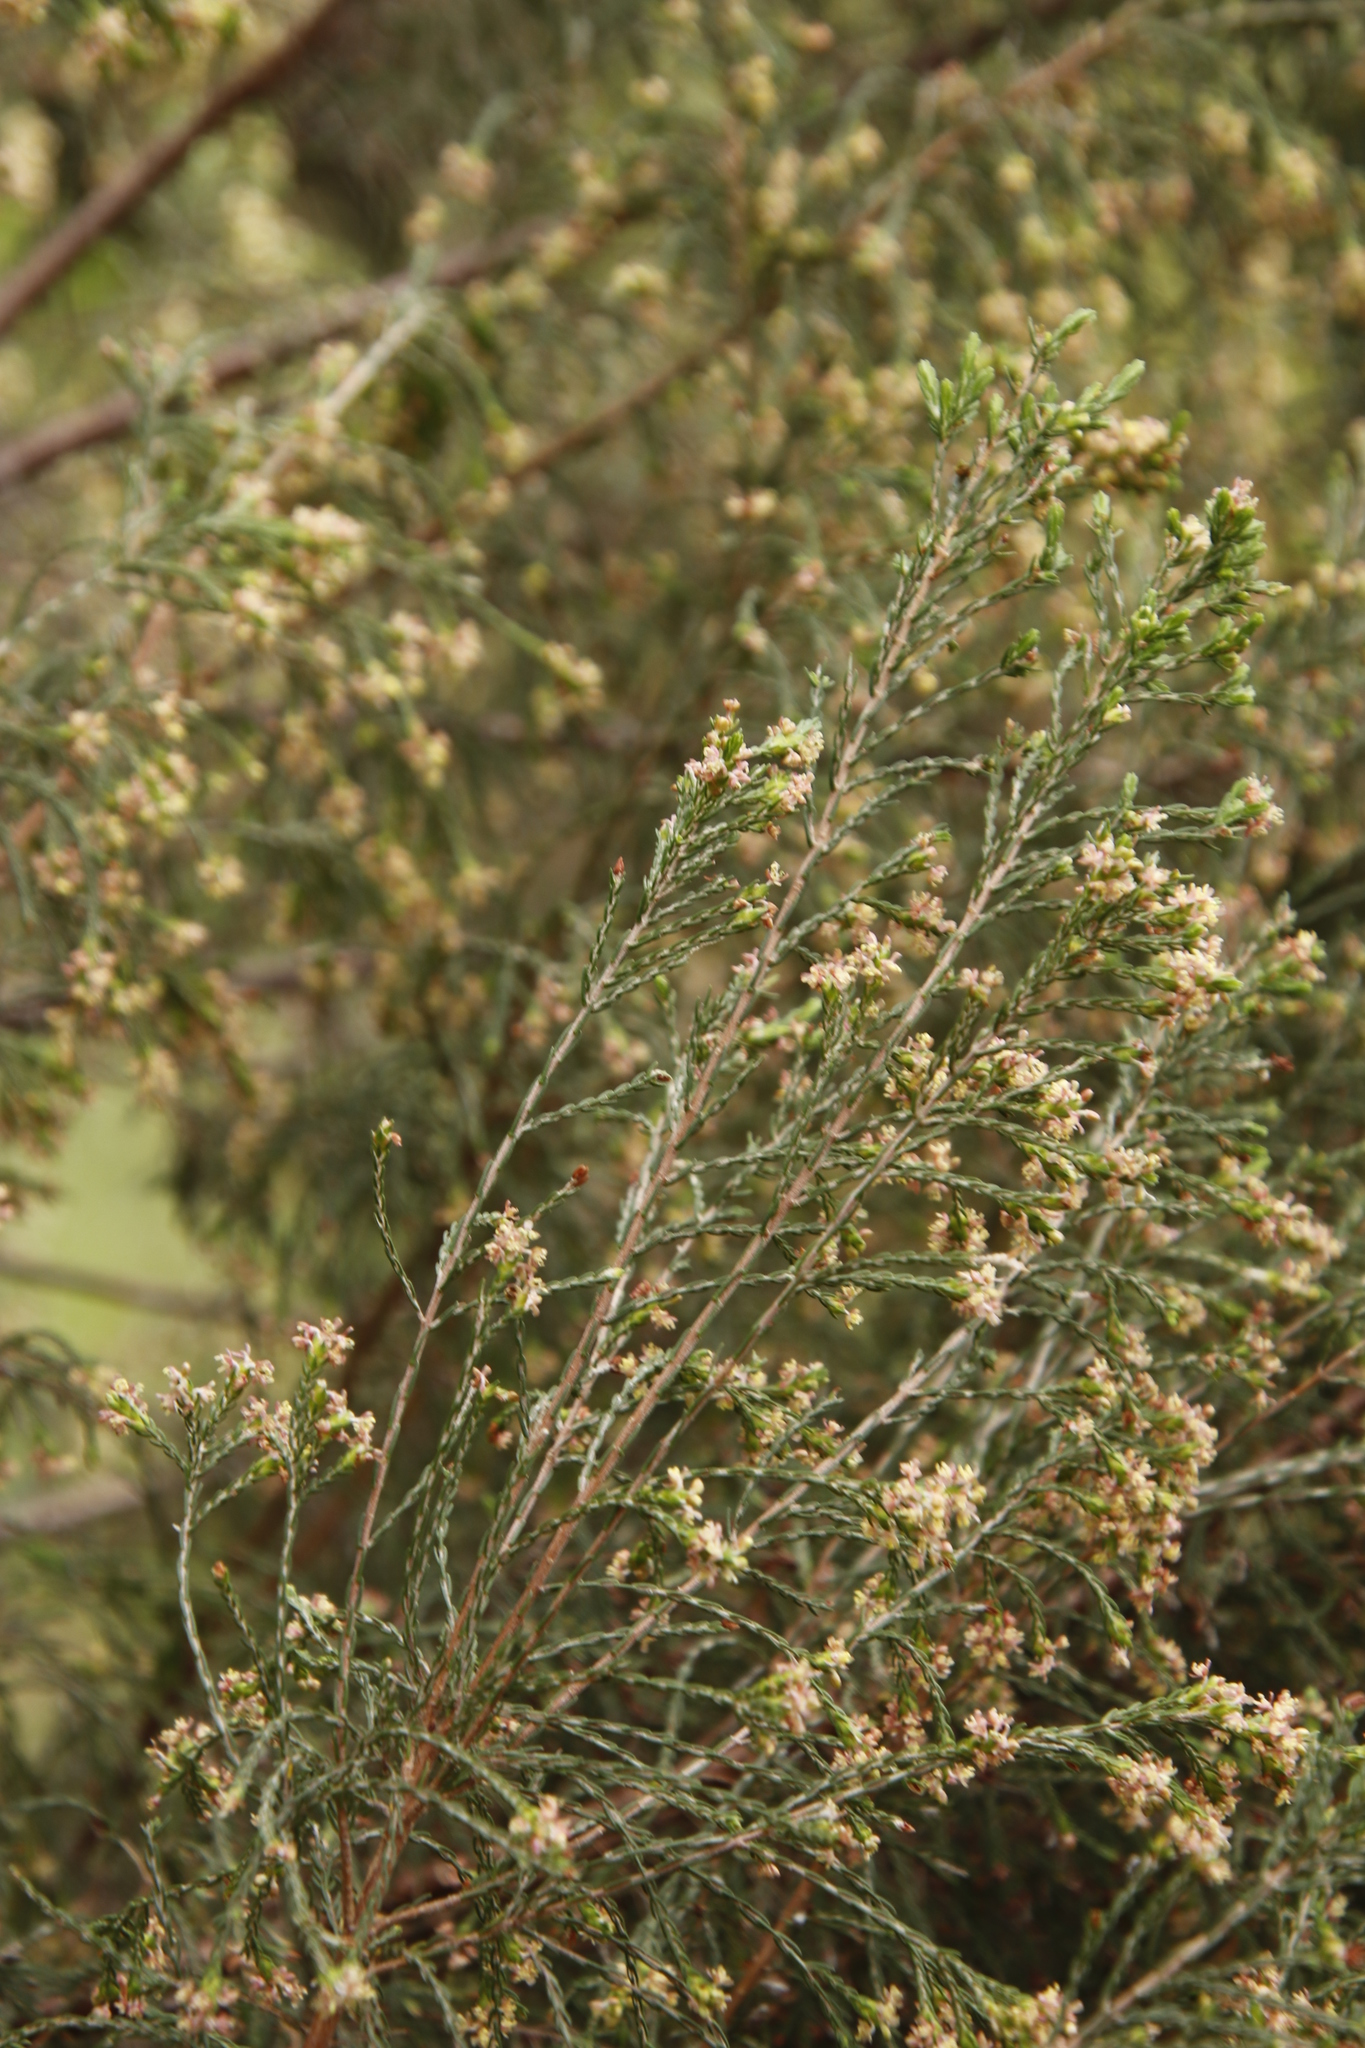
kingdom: Plantae
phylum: Tracheophyta
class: Magnoliopsida
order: Malvales
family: Thymelaeaceae
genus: Passerina
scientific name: Passerina corymbosa
